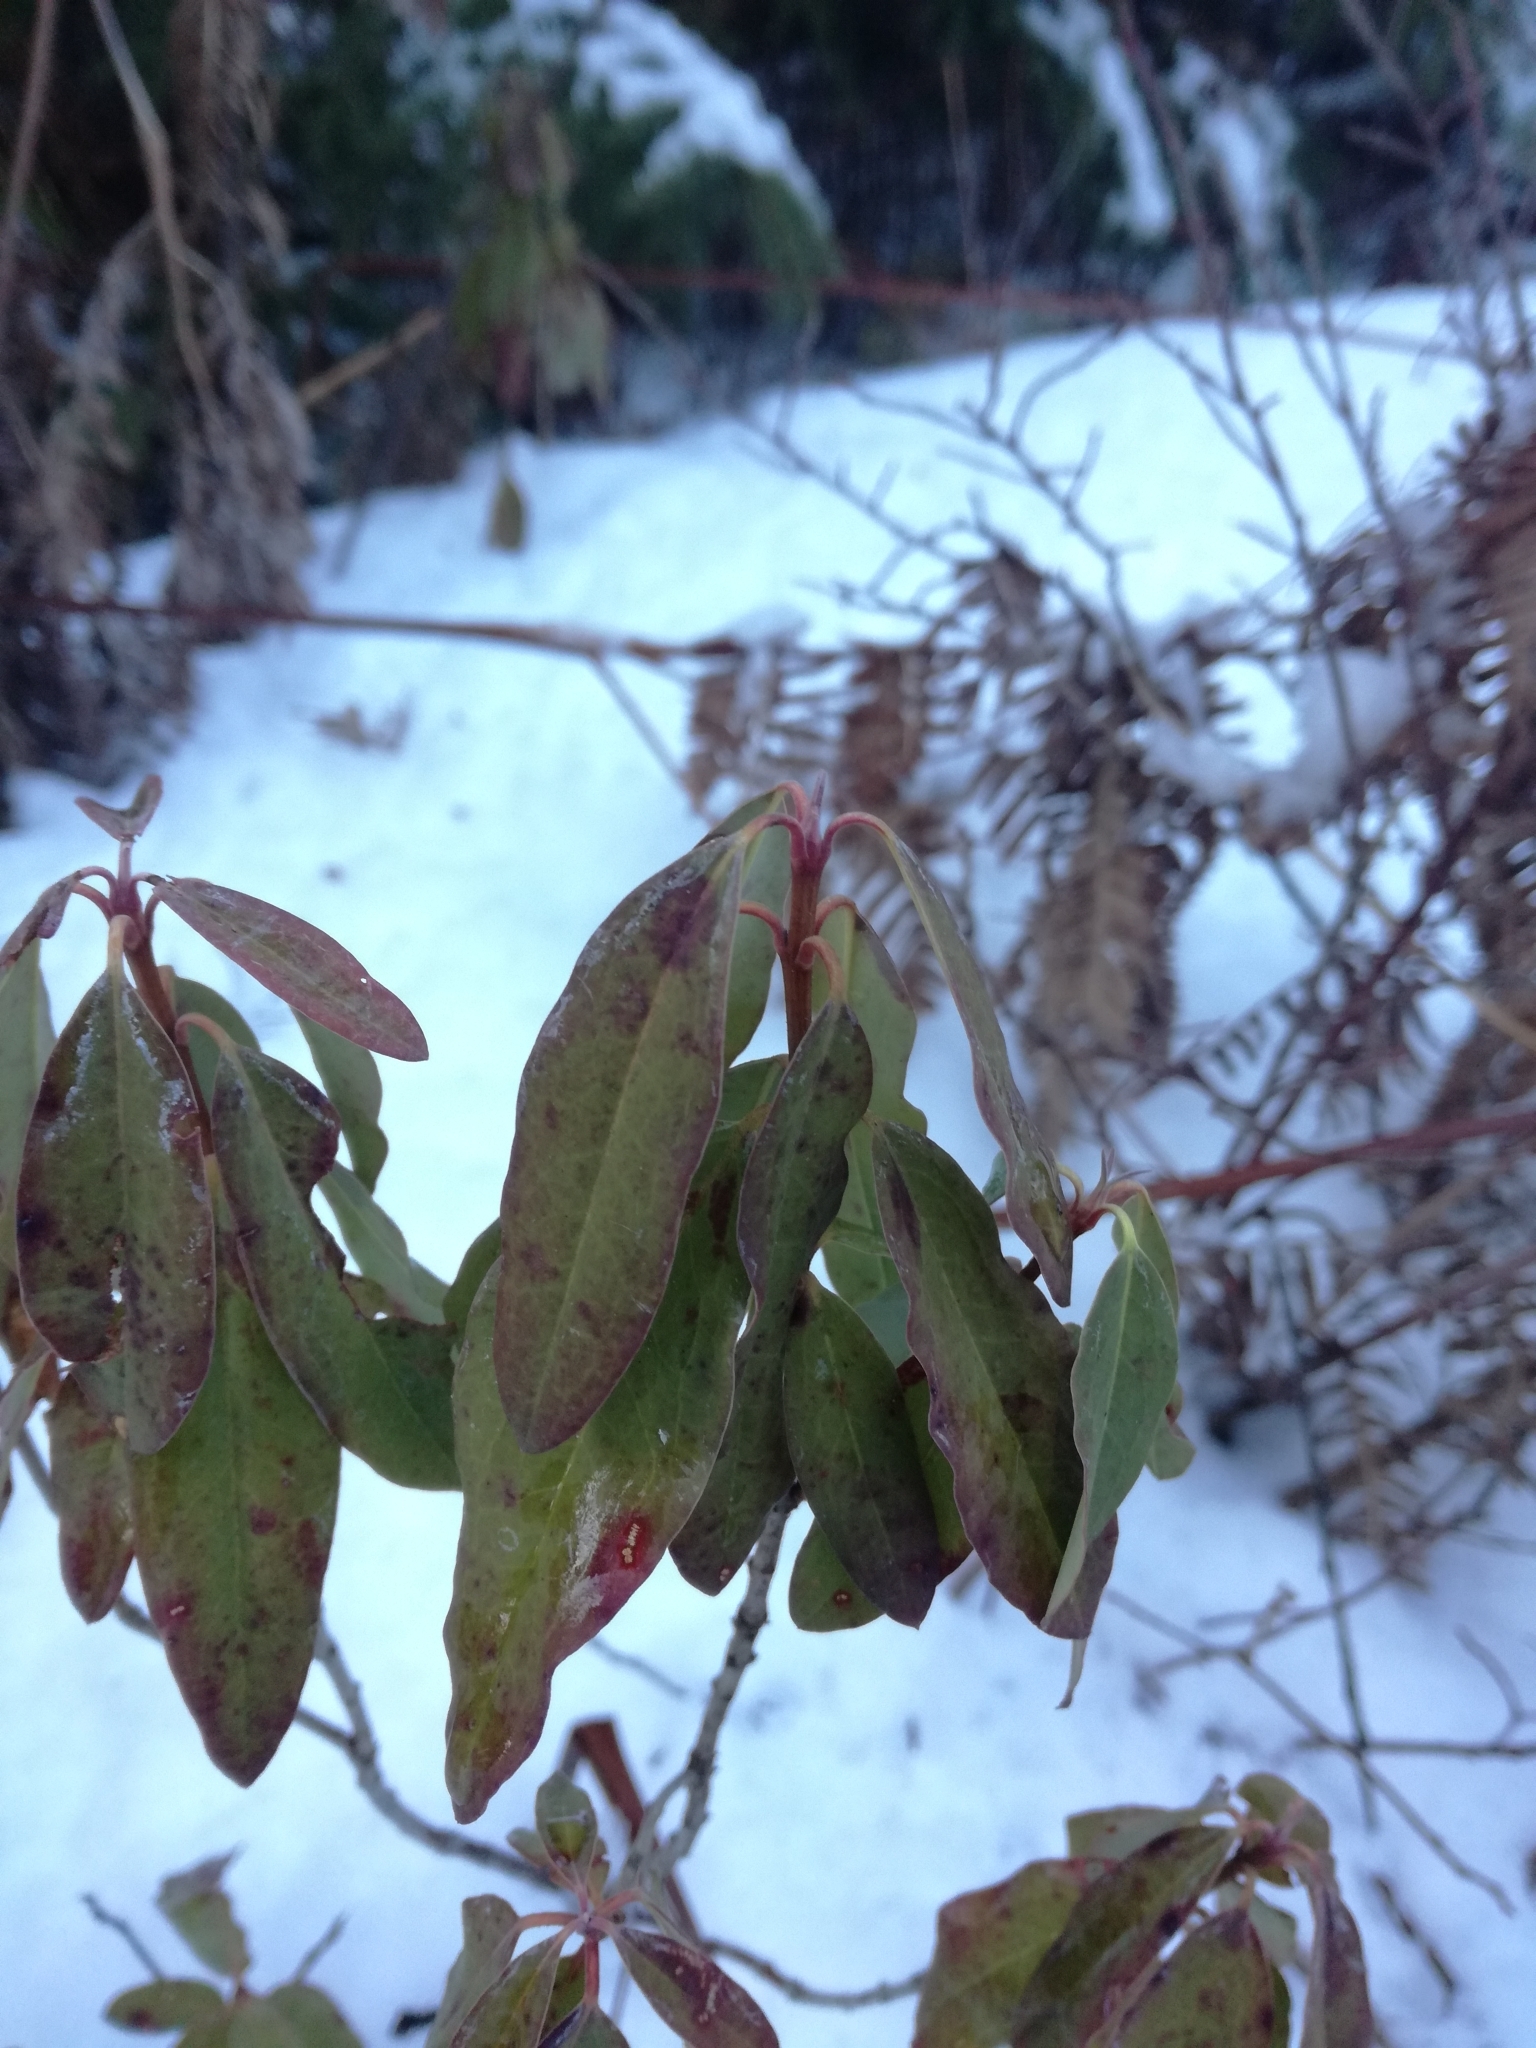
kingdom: Plantae
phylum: Tracheophyta
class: Magnoliopsida
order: Ericales
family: Ericaceae
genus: Kalmia
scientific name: Kalmia angustifolia
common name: Sheep-laurel
